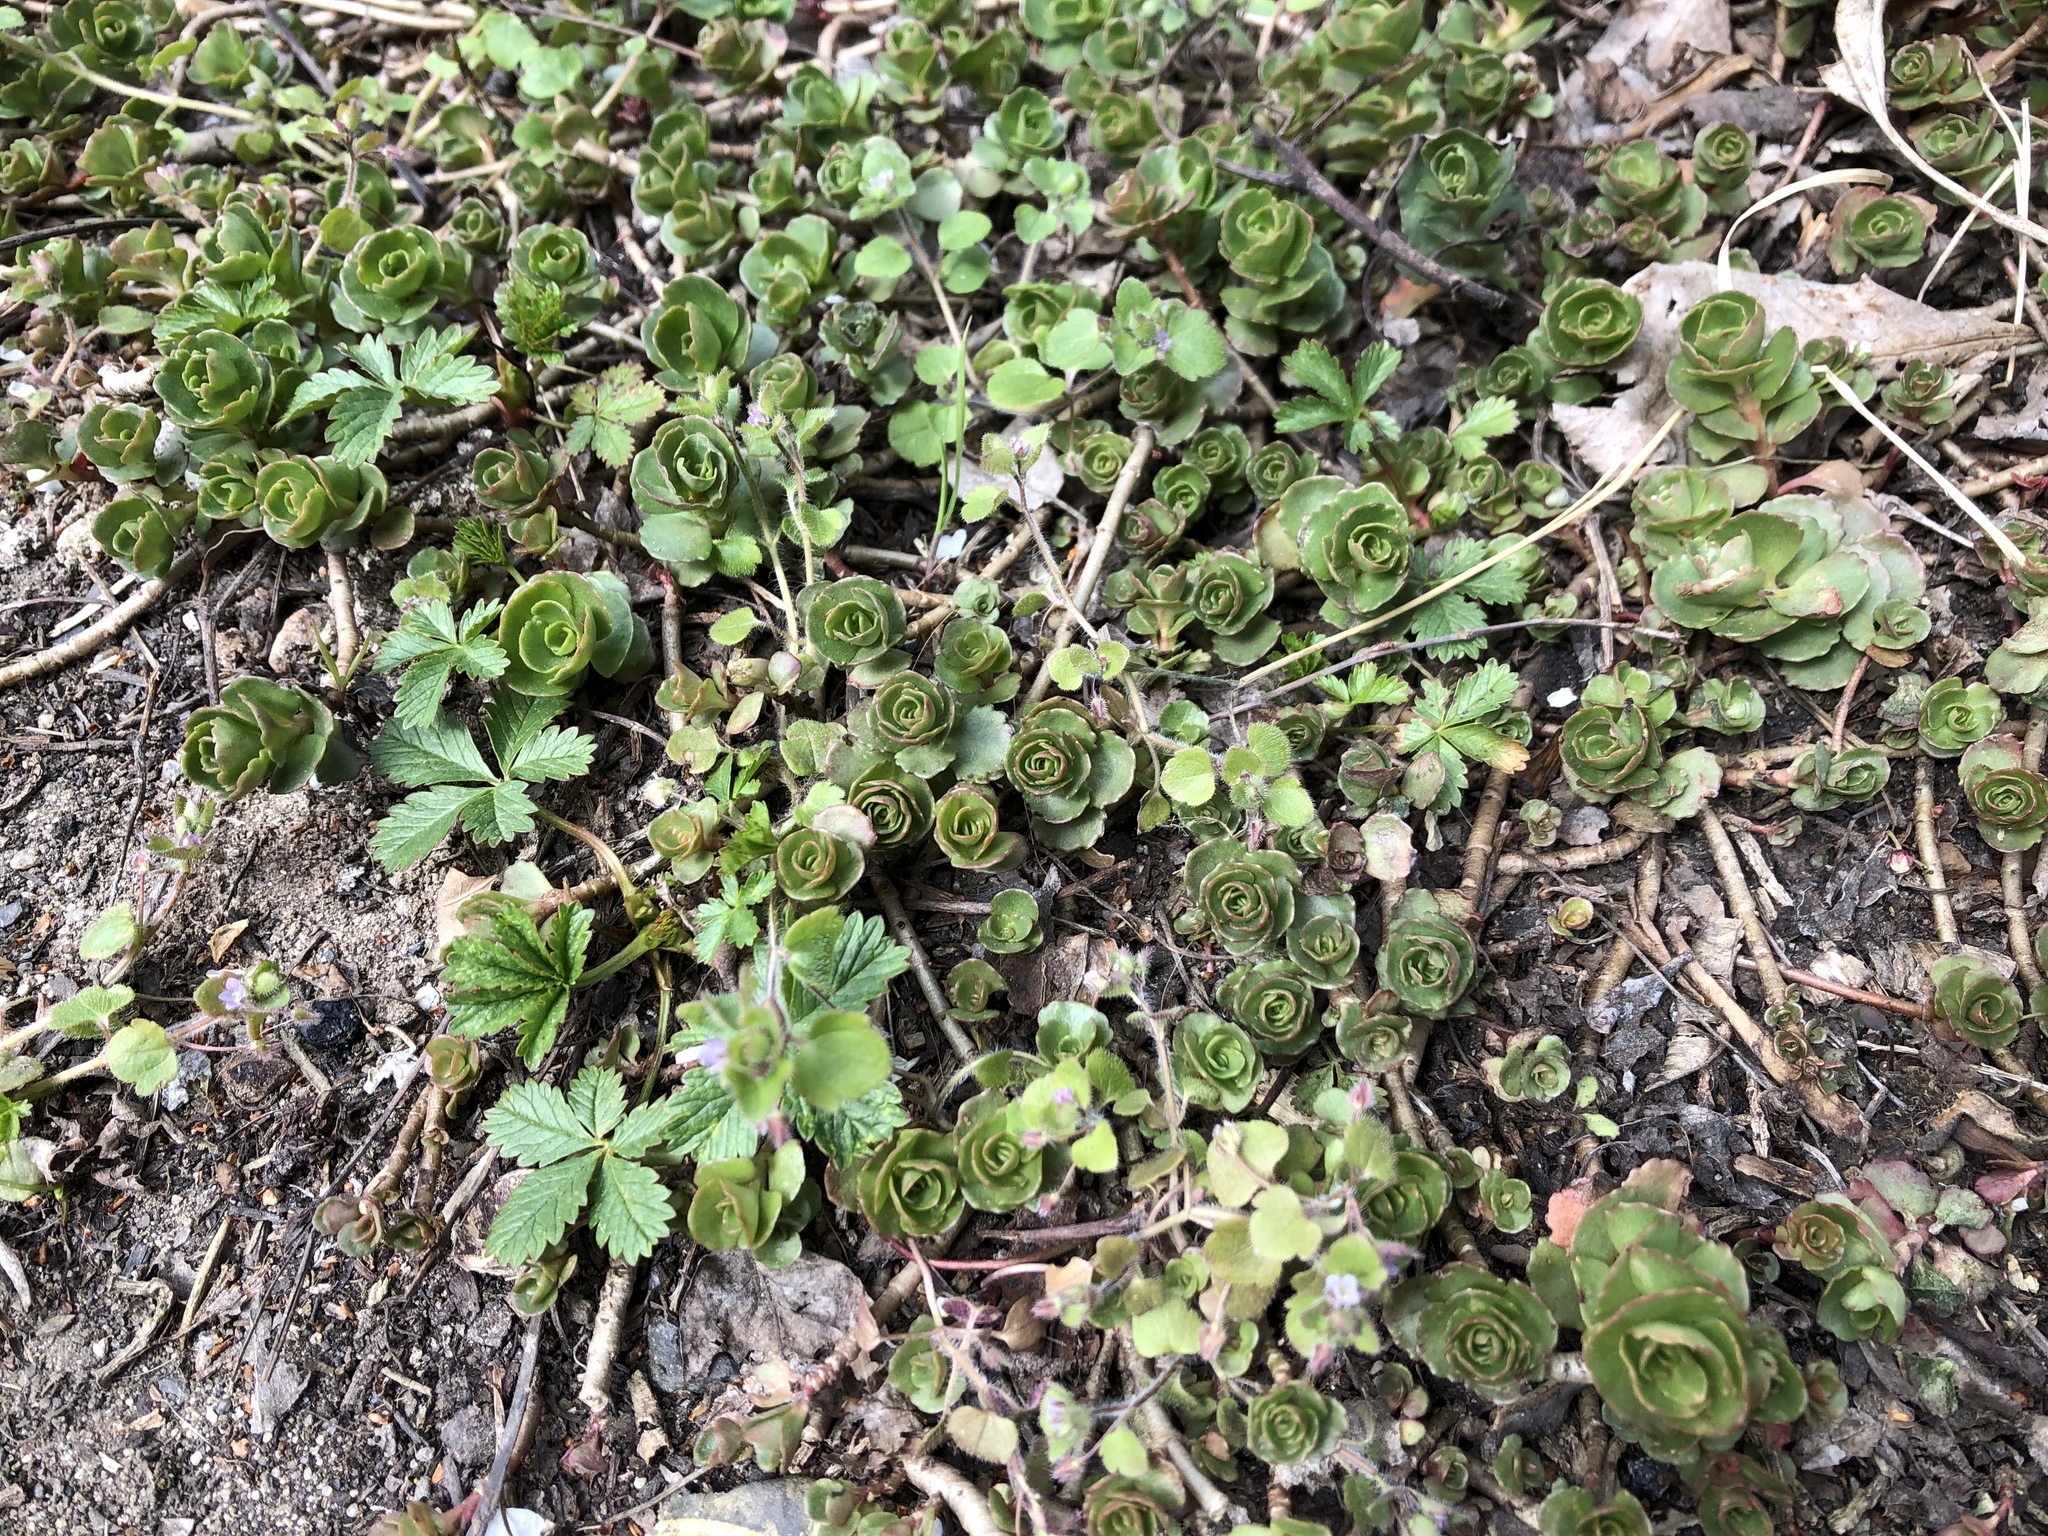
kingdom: Plantae
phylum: Tracheophyta
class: Magnoliopsida
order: Saxifragales
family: Crassulaceae
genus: Phedimus
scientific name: Phedimus spurius
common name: Caucasian stonecrop
